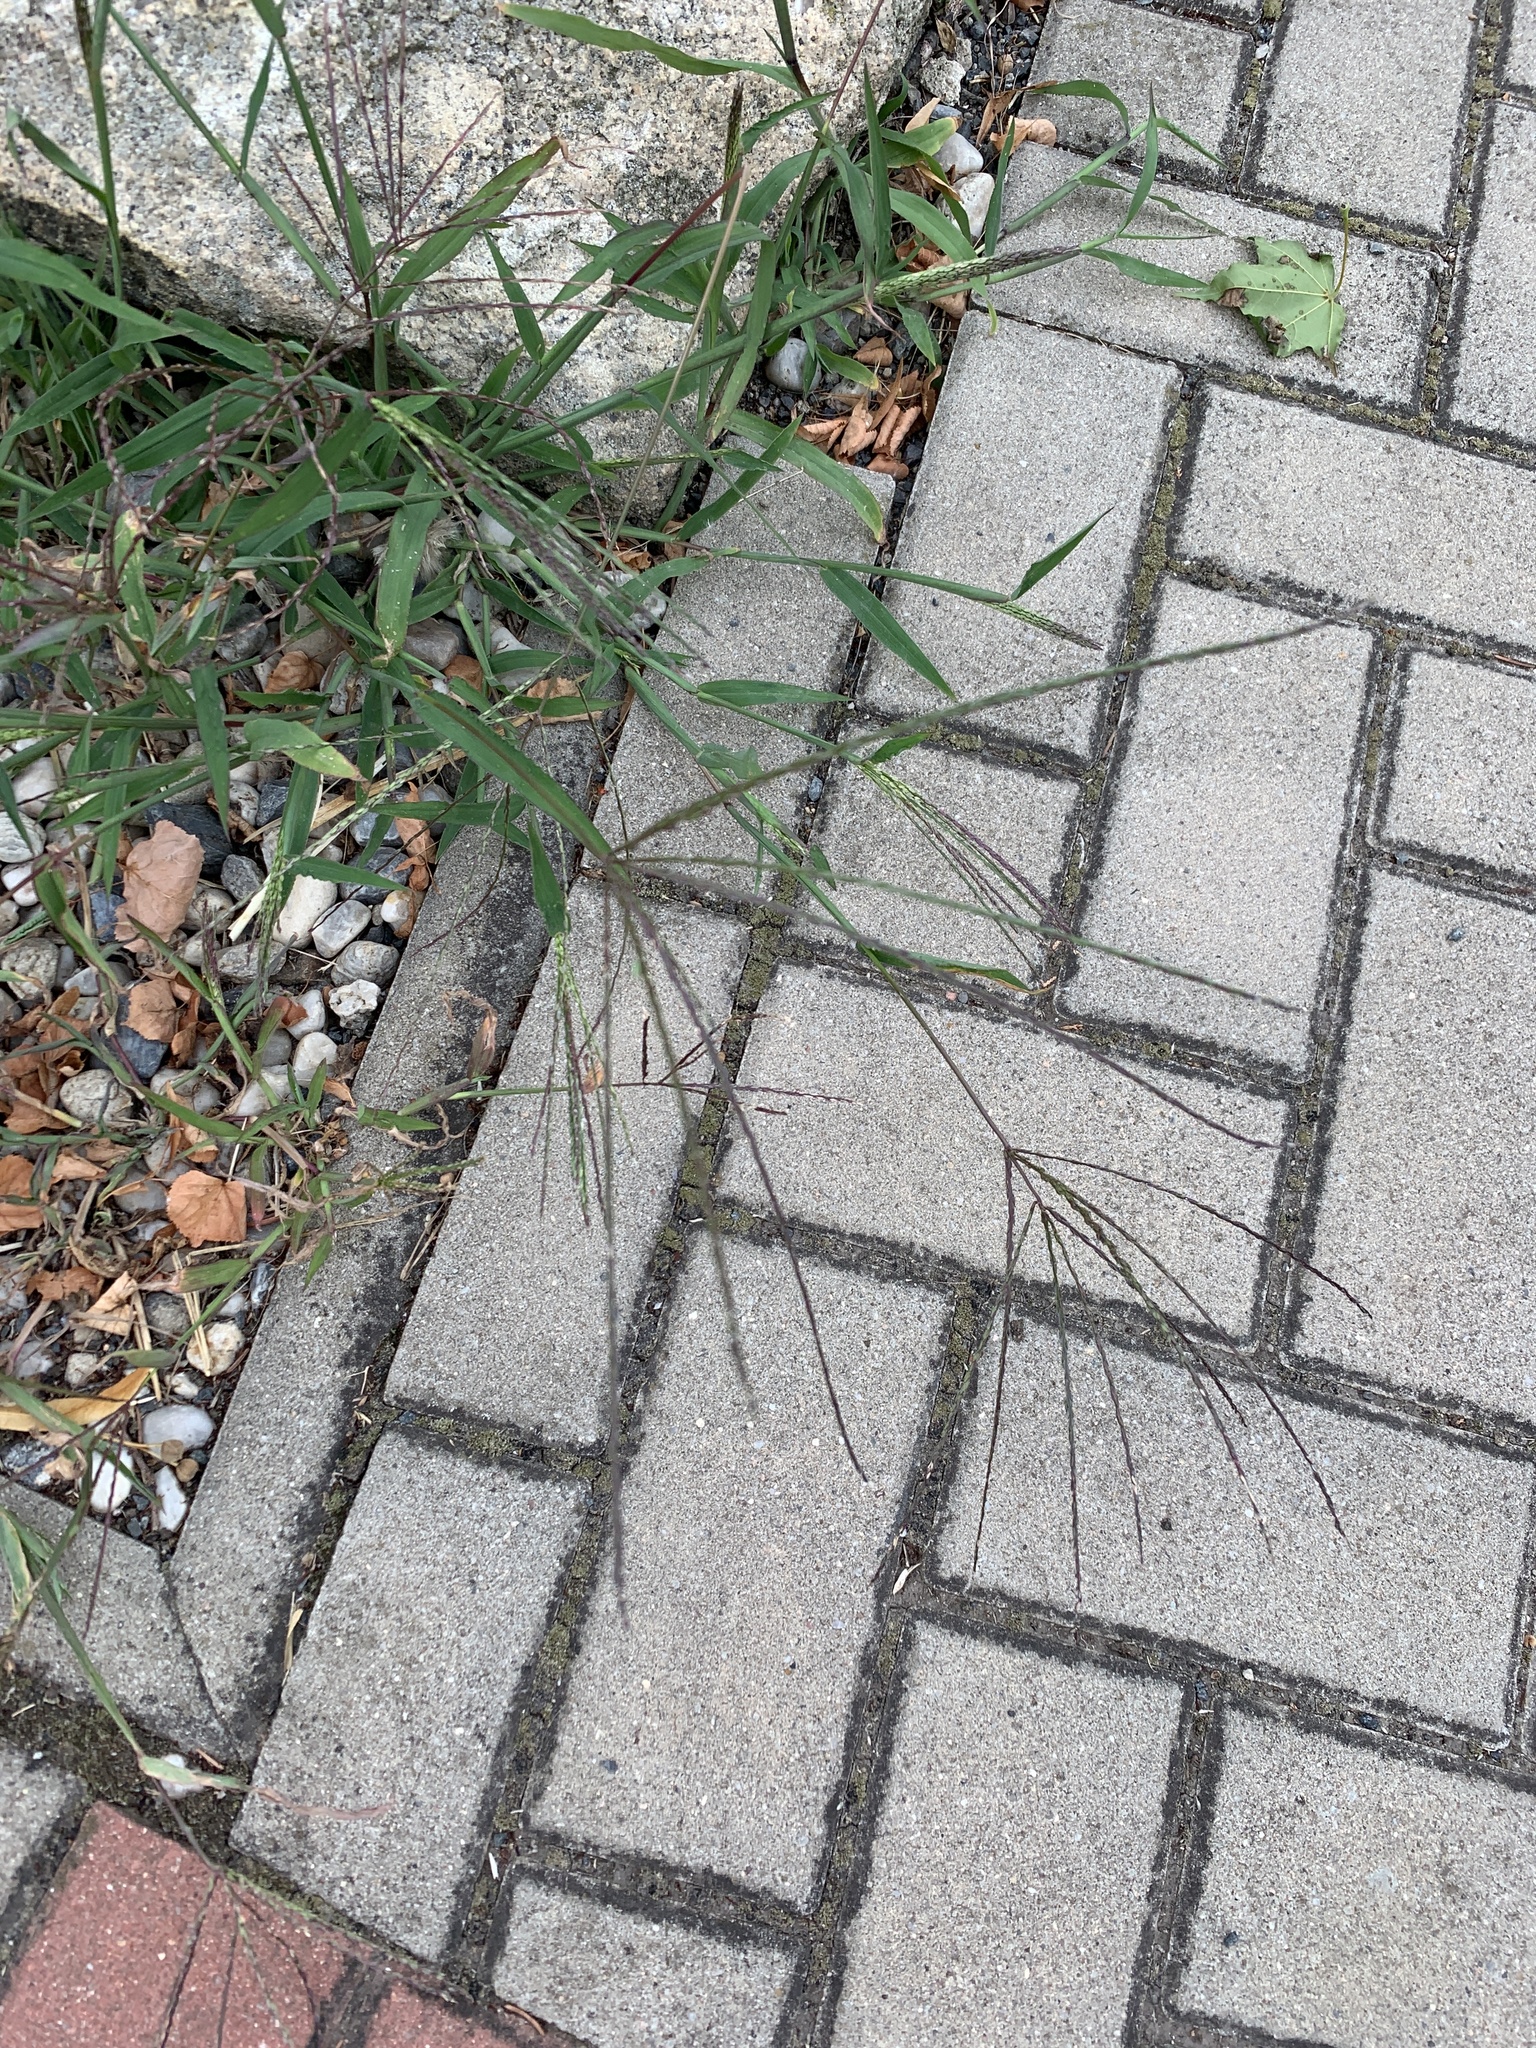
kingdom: Plantae
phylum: Tracheophyta
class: Liliopsida
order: Poales
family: Poaceae
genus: Digitaria
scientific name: Digitaria sanguinalis
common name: Hairy crabgrass
